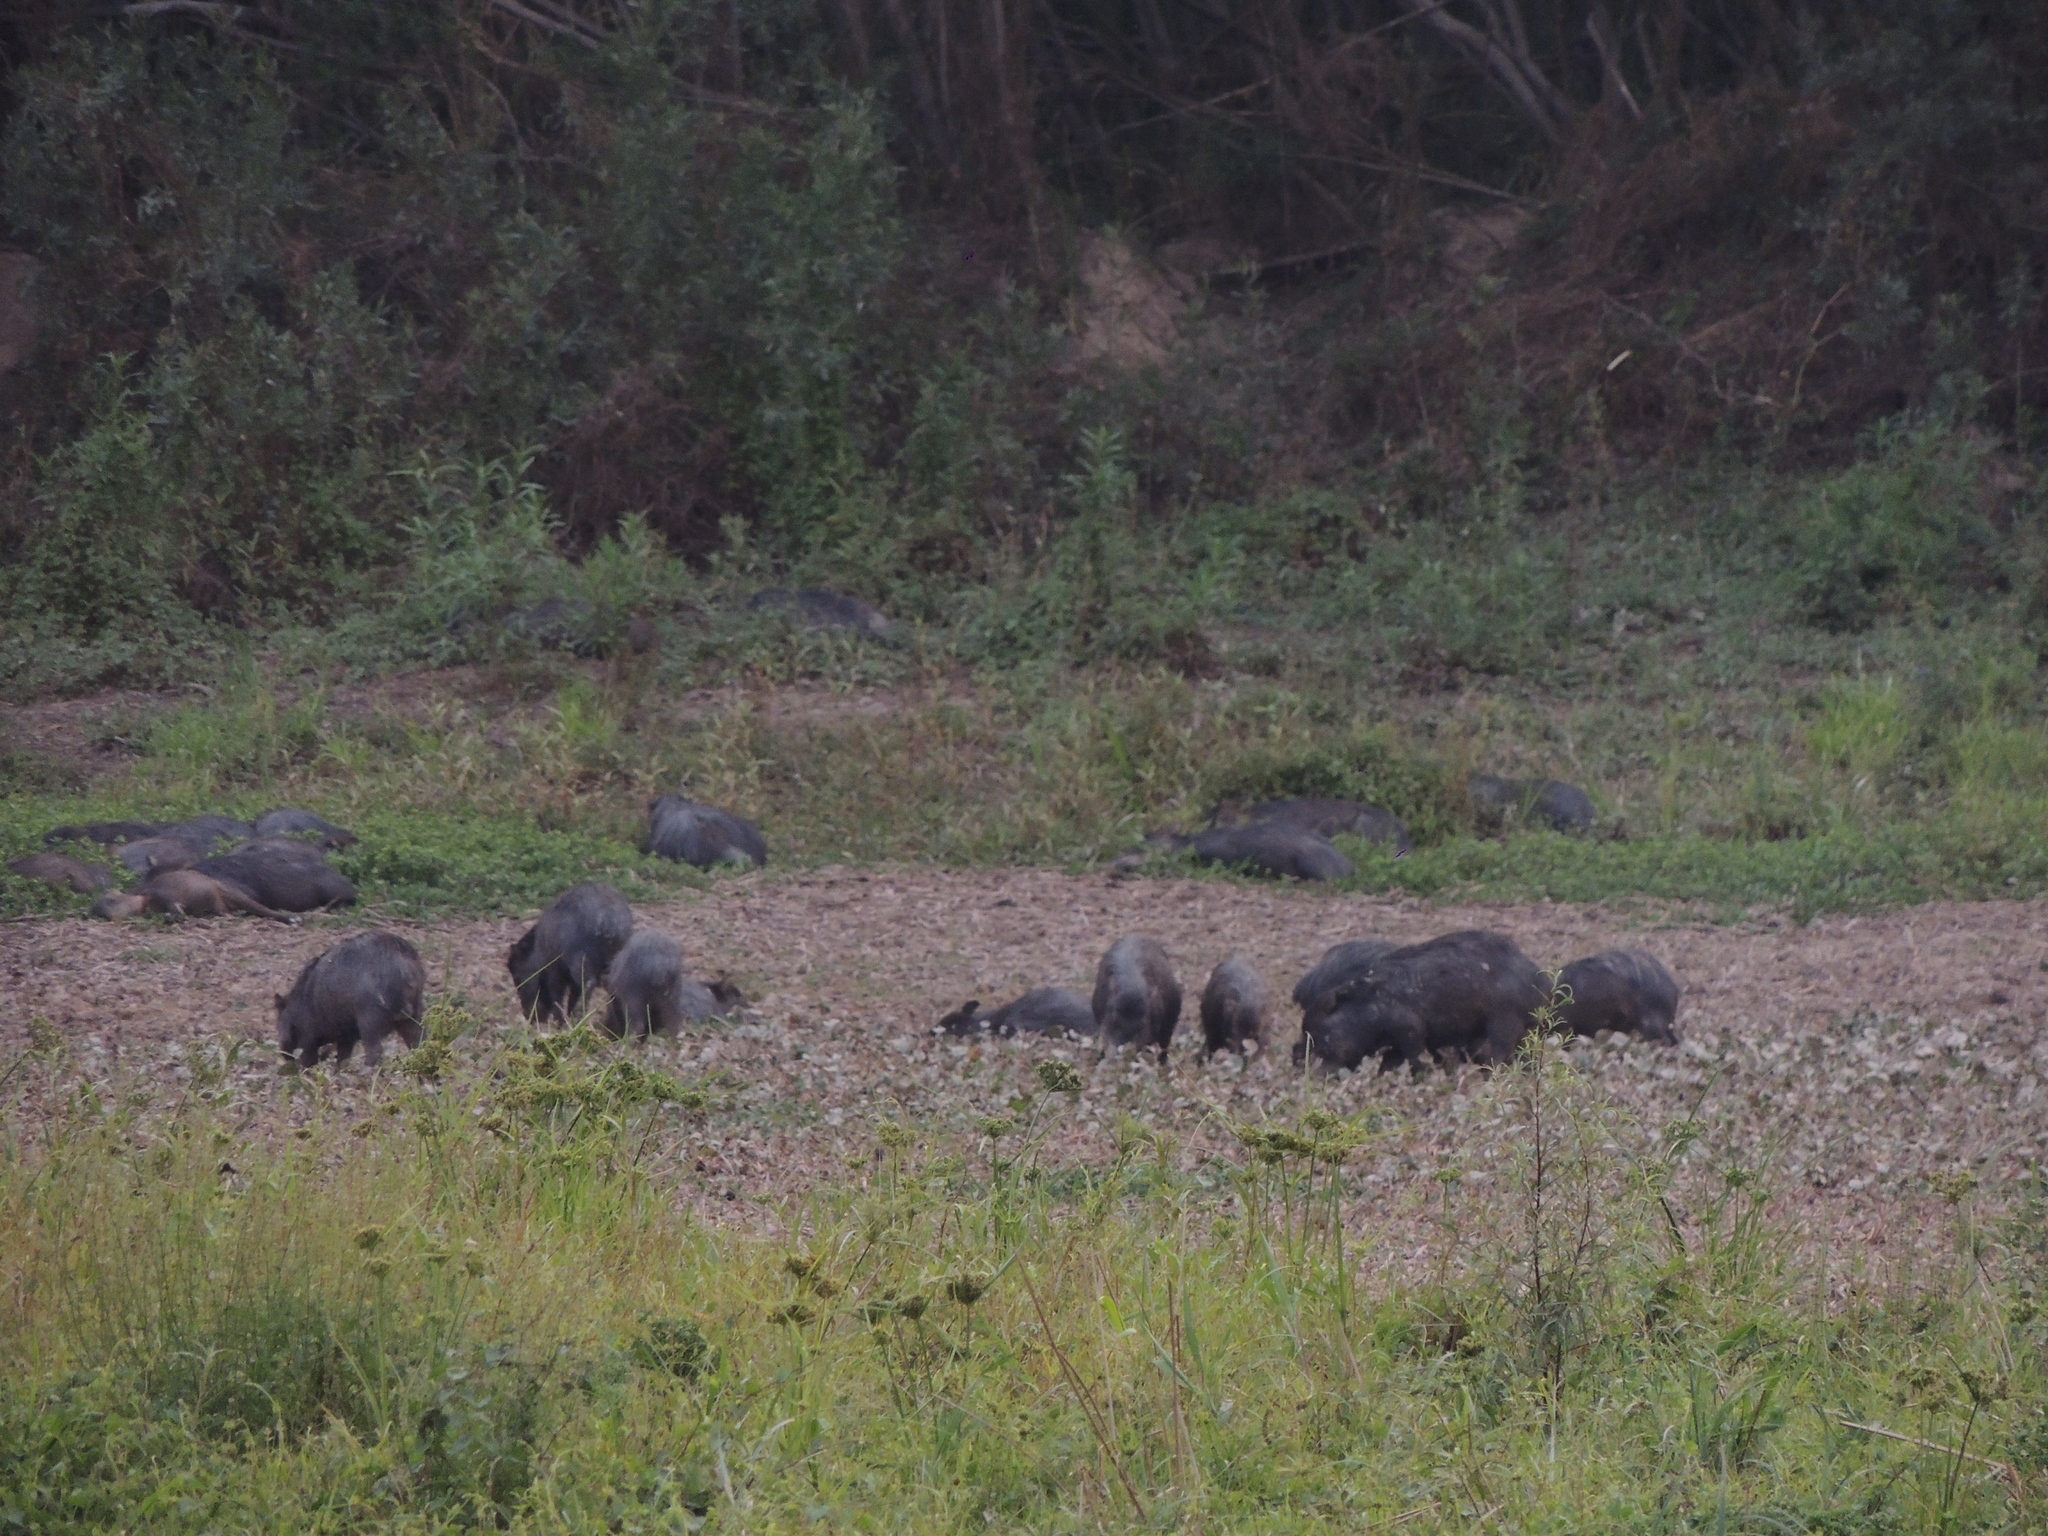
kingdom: Animalia
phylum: Chordata
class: Mammalia
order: Artiodactyla
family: Tayassuidae
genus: Tayassu
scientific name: Tayassu pecari
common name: White-lipped peccary
